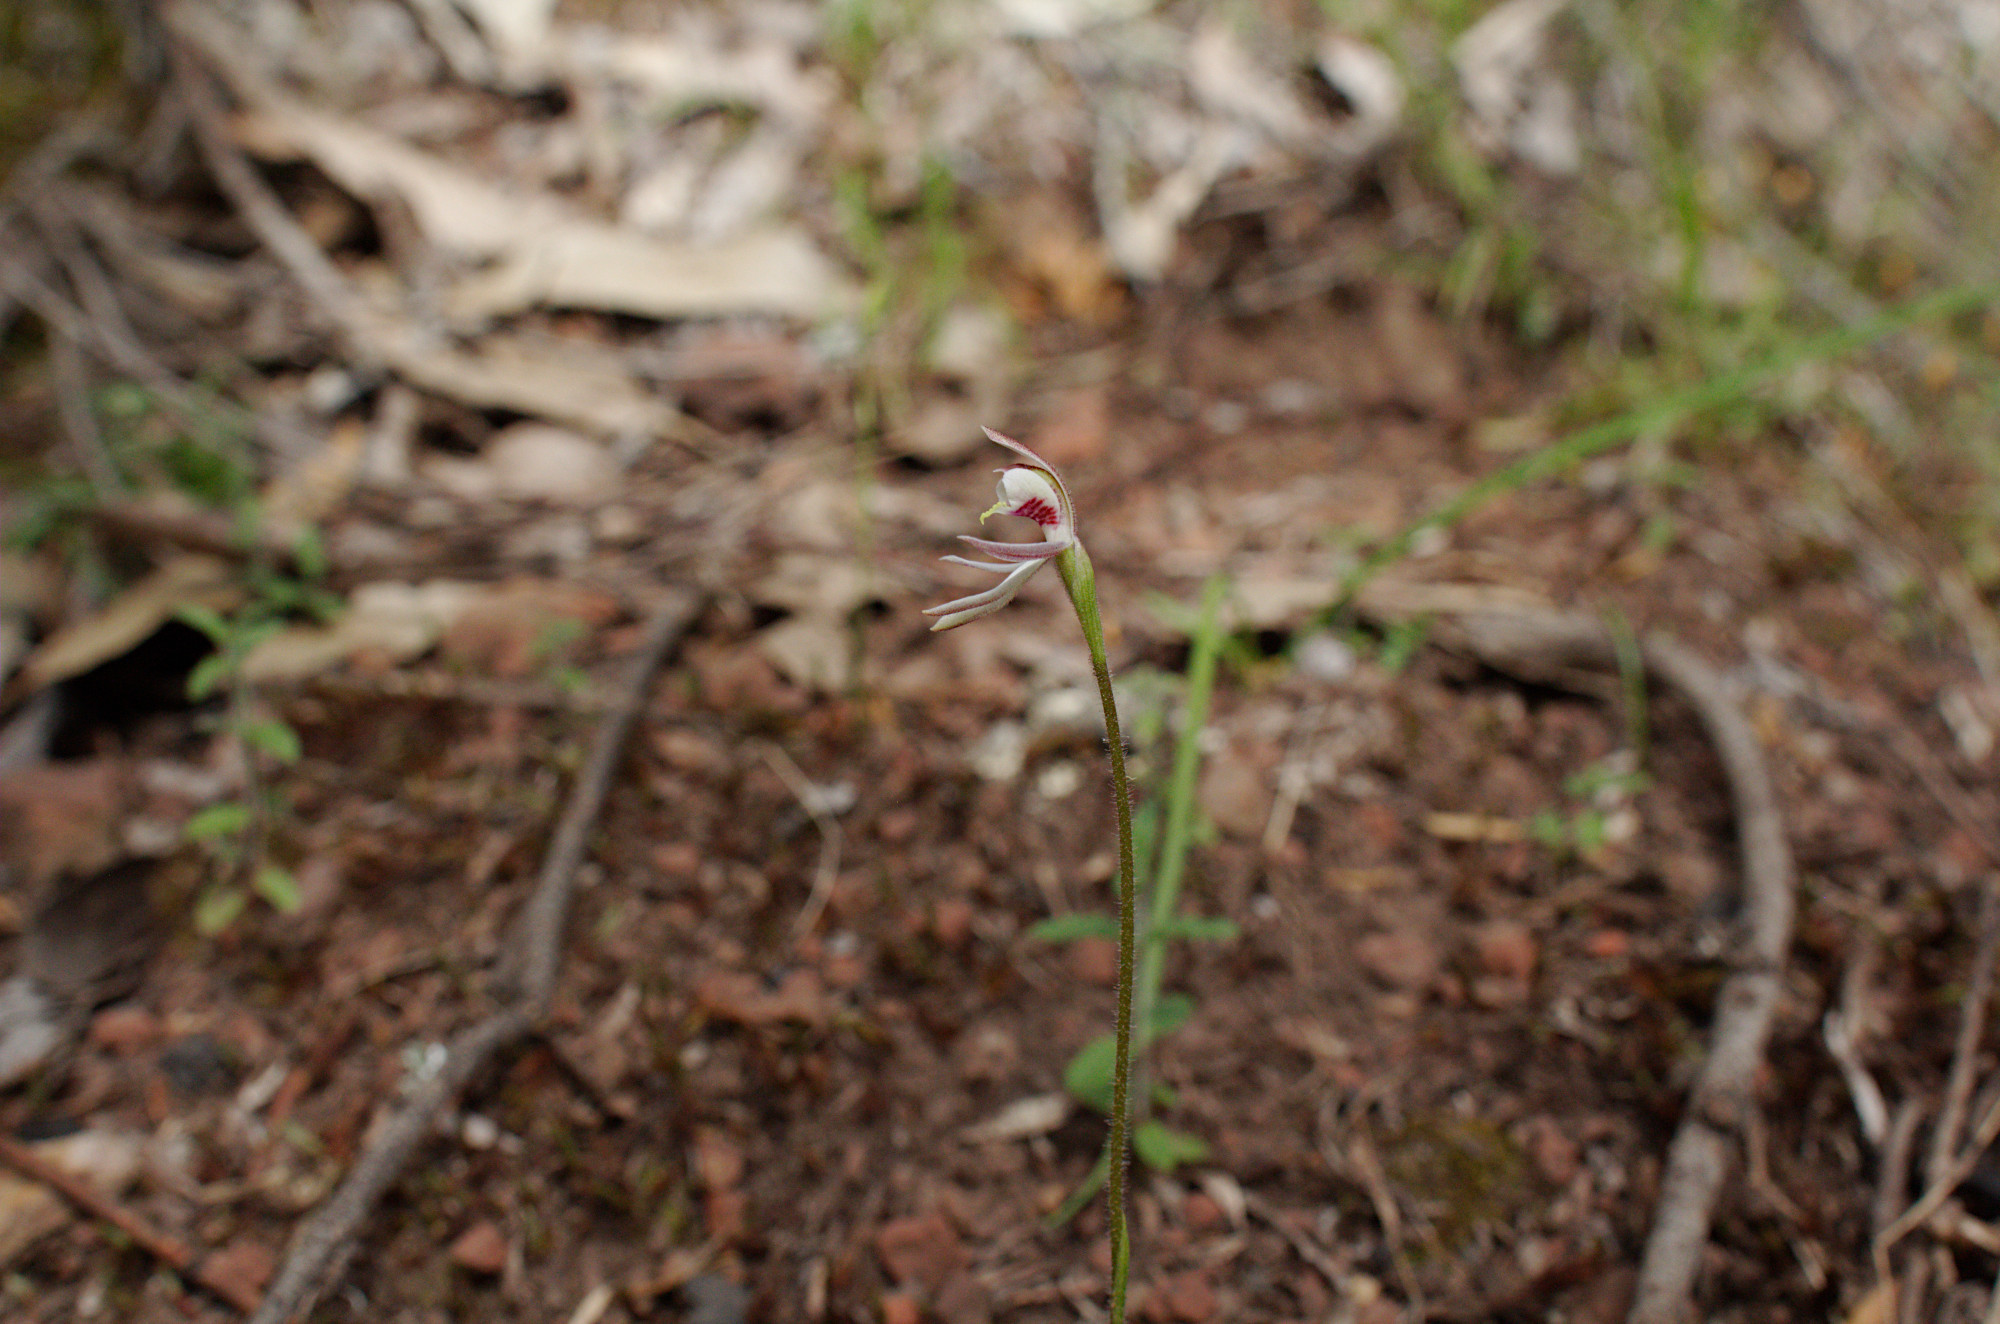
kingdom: Plantae
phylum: Tracheophyta
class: Liliopsida
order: Asparagales
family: Orchidaceae
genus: Caladenia
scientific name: Caladenia carnea
